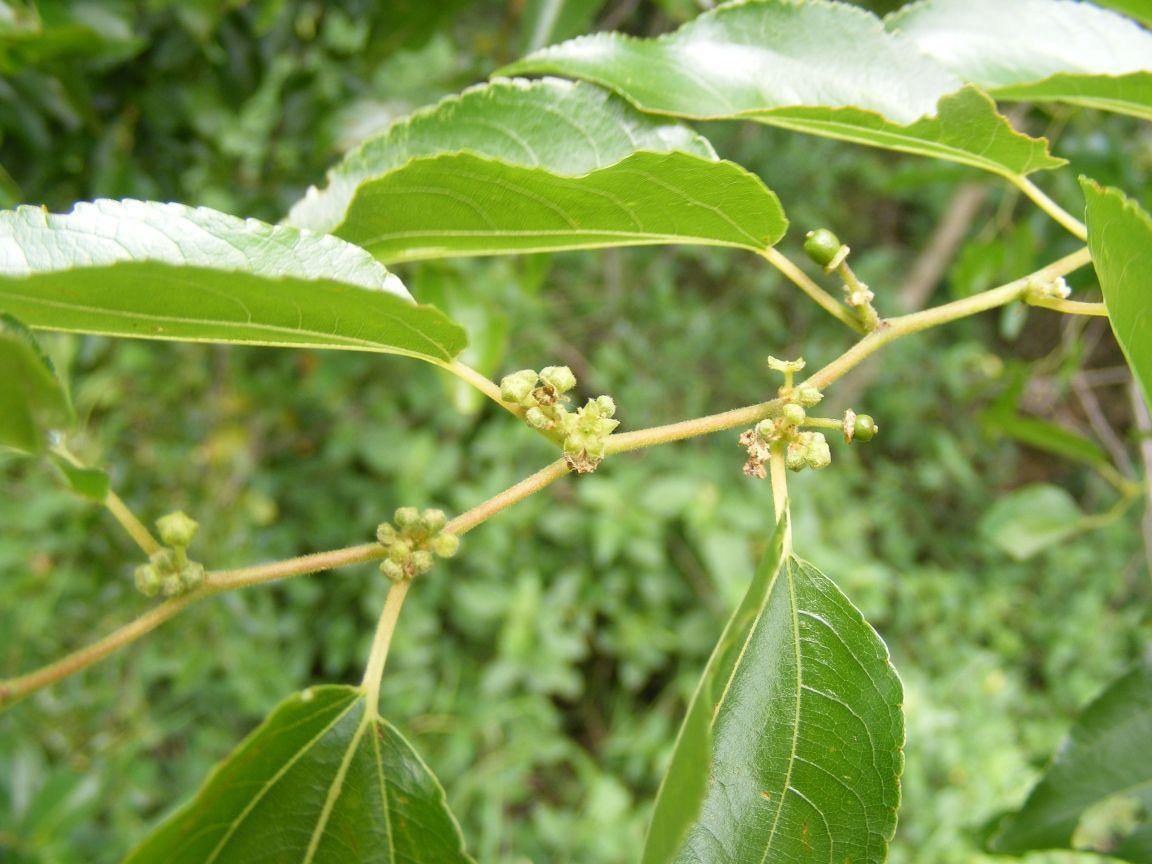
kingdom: Plantae
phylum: Tracheophyta
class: Magnoliopsida
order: Rosales
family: Rhamnaceae
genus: Ziziphus
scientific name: Ziziphus mucronata
